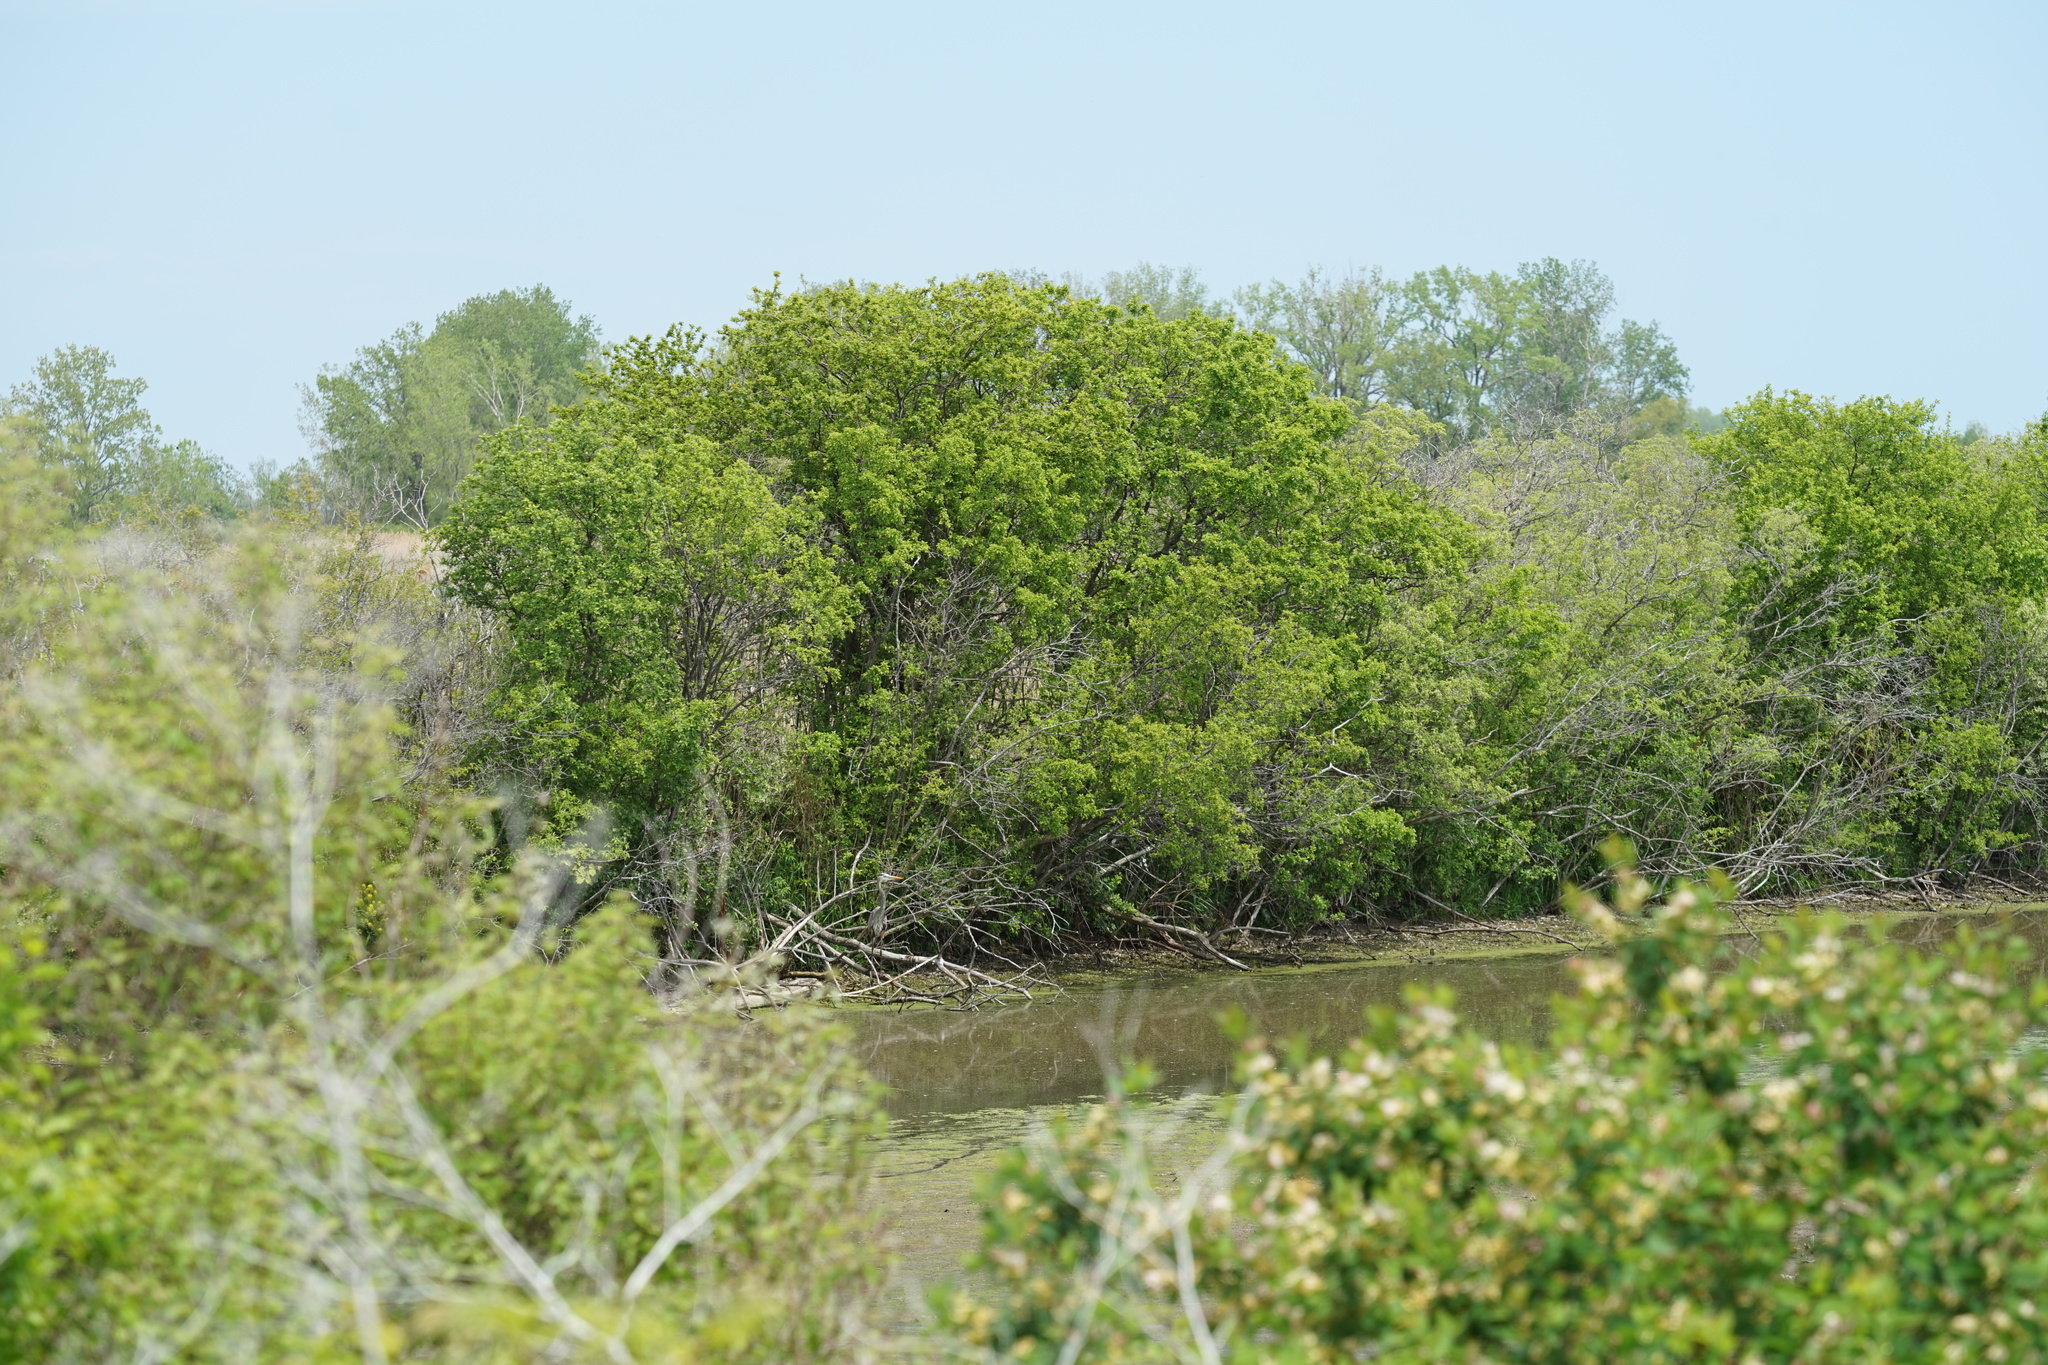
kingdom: Animalia
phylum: Chordata
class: Aves
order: Pelecaniformes
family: Ardeidae
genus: Ardea
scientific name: Ardea herodias
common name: Great blue heron
